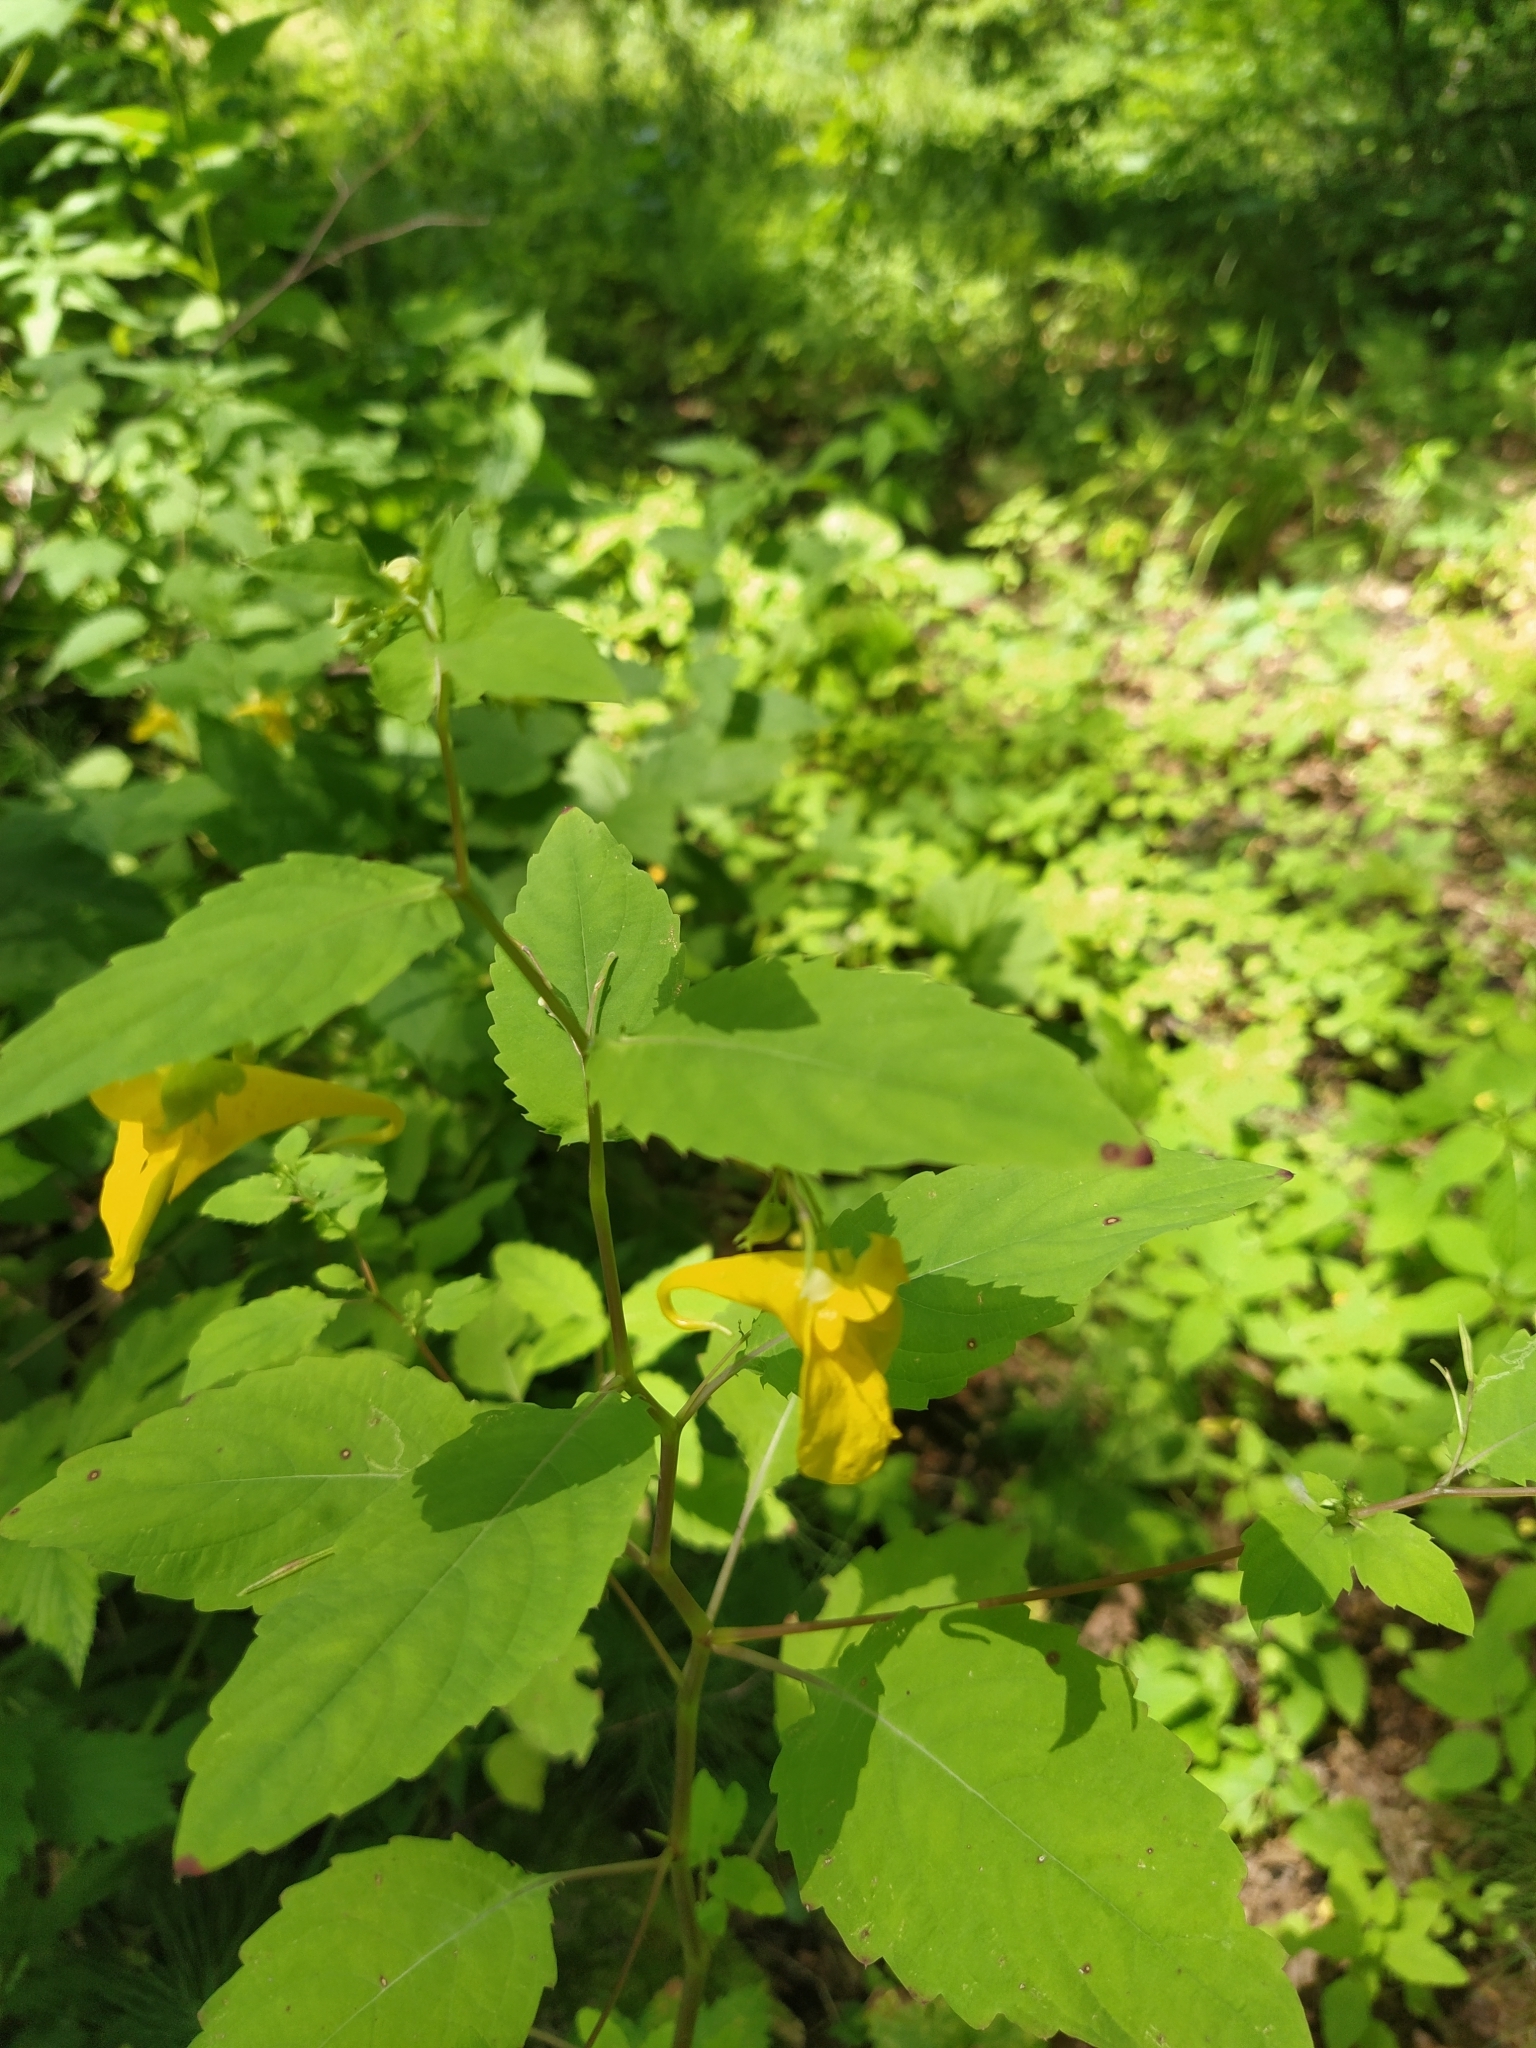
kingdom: Plantae
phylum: Tracheophyta
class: Magnoliopsida
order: Ericales
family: Balsaminaceae
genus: Impatiens
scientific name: Impatiens noli-tangere
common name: Touch-me-not balsam
